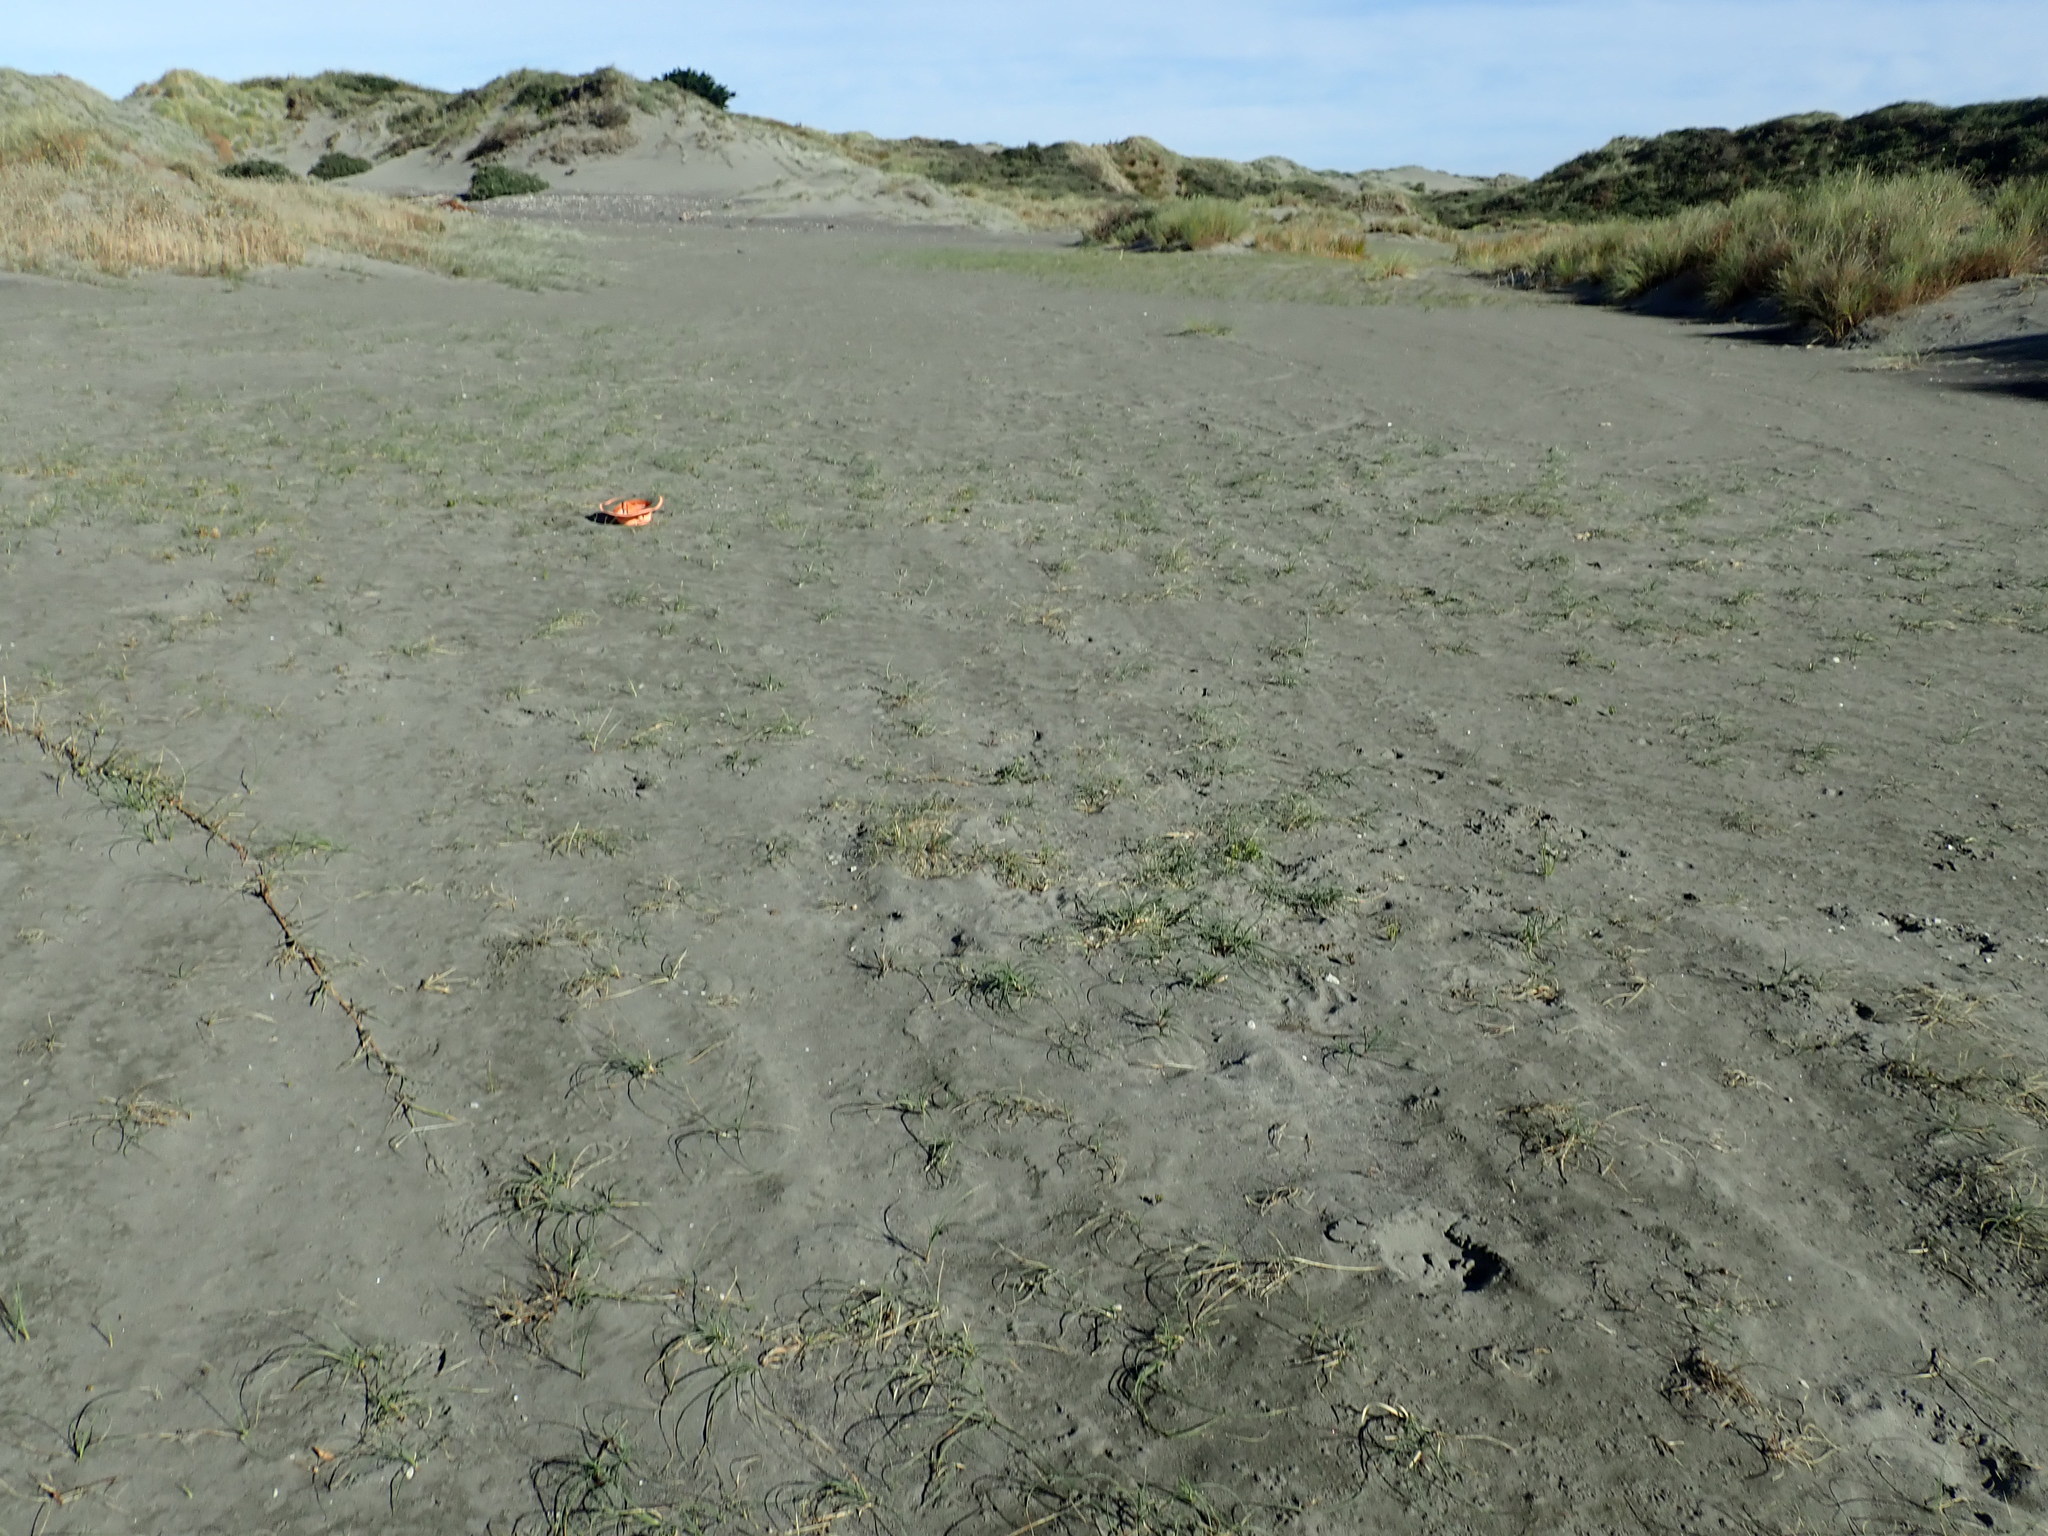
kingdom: Plantae
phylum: Tracheophyta
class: Liliopsida
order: Poales
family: Cyperaceae
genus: Carex
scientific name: Carex pumila
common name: Dwarf sedge
